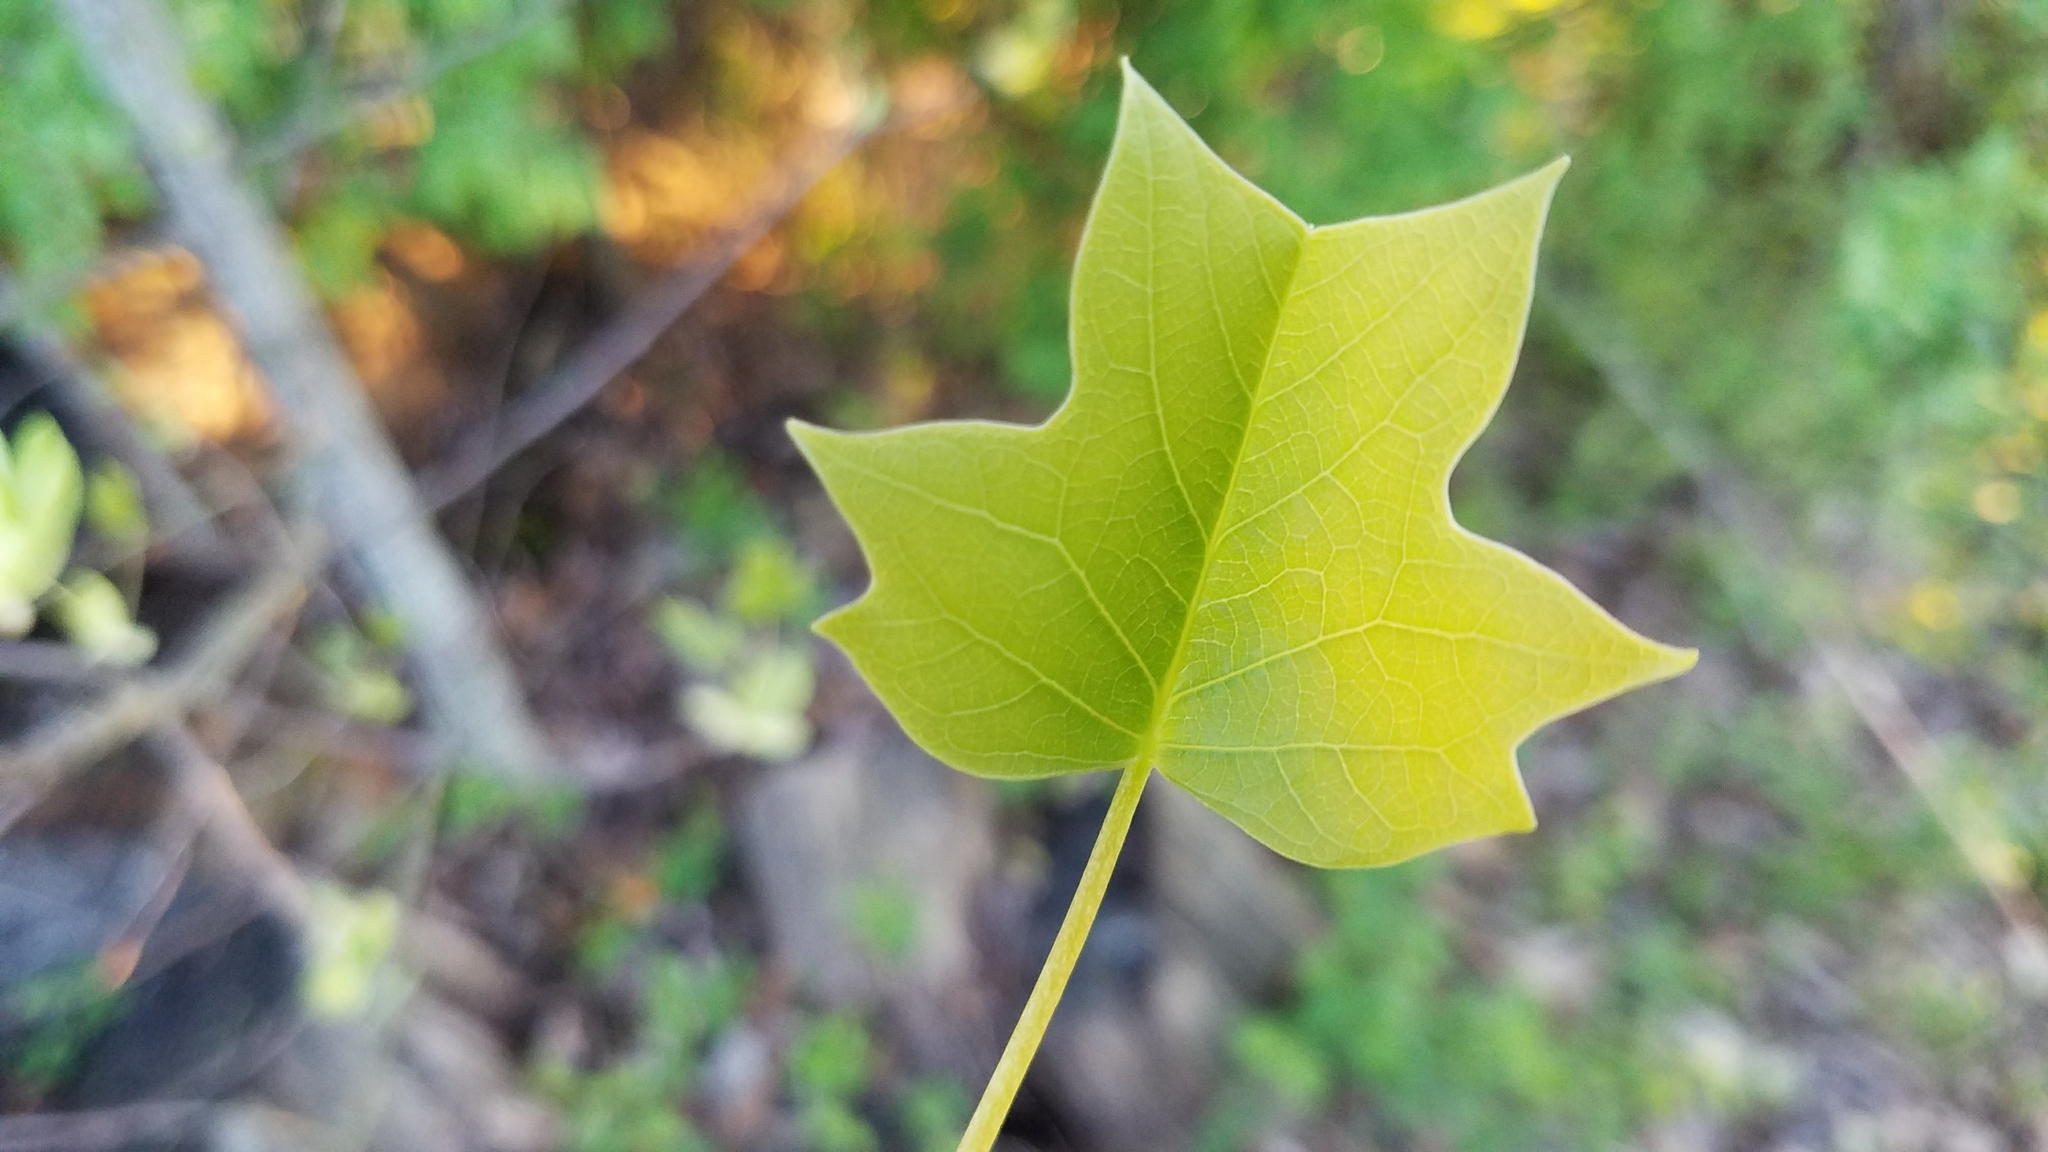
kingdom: Plantae
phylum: Tracheophyta
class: Magnoliopsida
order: Magnoliales
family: Magnoliaceae
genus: Liriodendron
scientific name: Liriodendron tulipifera
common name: Tulip tree
